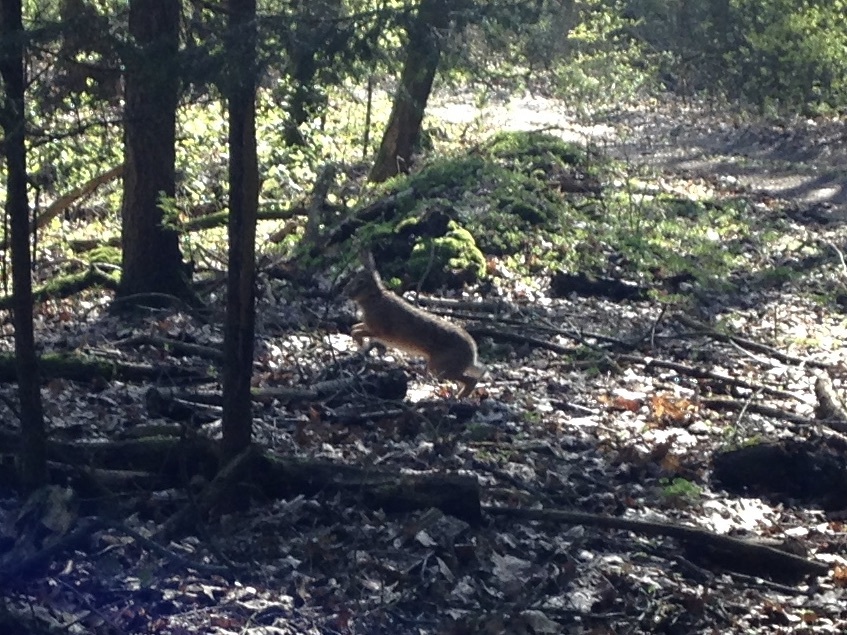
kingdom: Animalia
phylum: Chordata
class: Mammalia
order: Lagomorpha
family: Leporidae
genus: Lepus
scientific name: Lepus europaeus
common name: European hare
